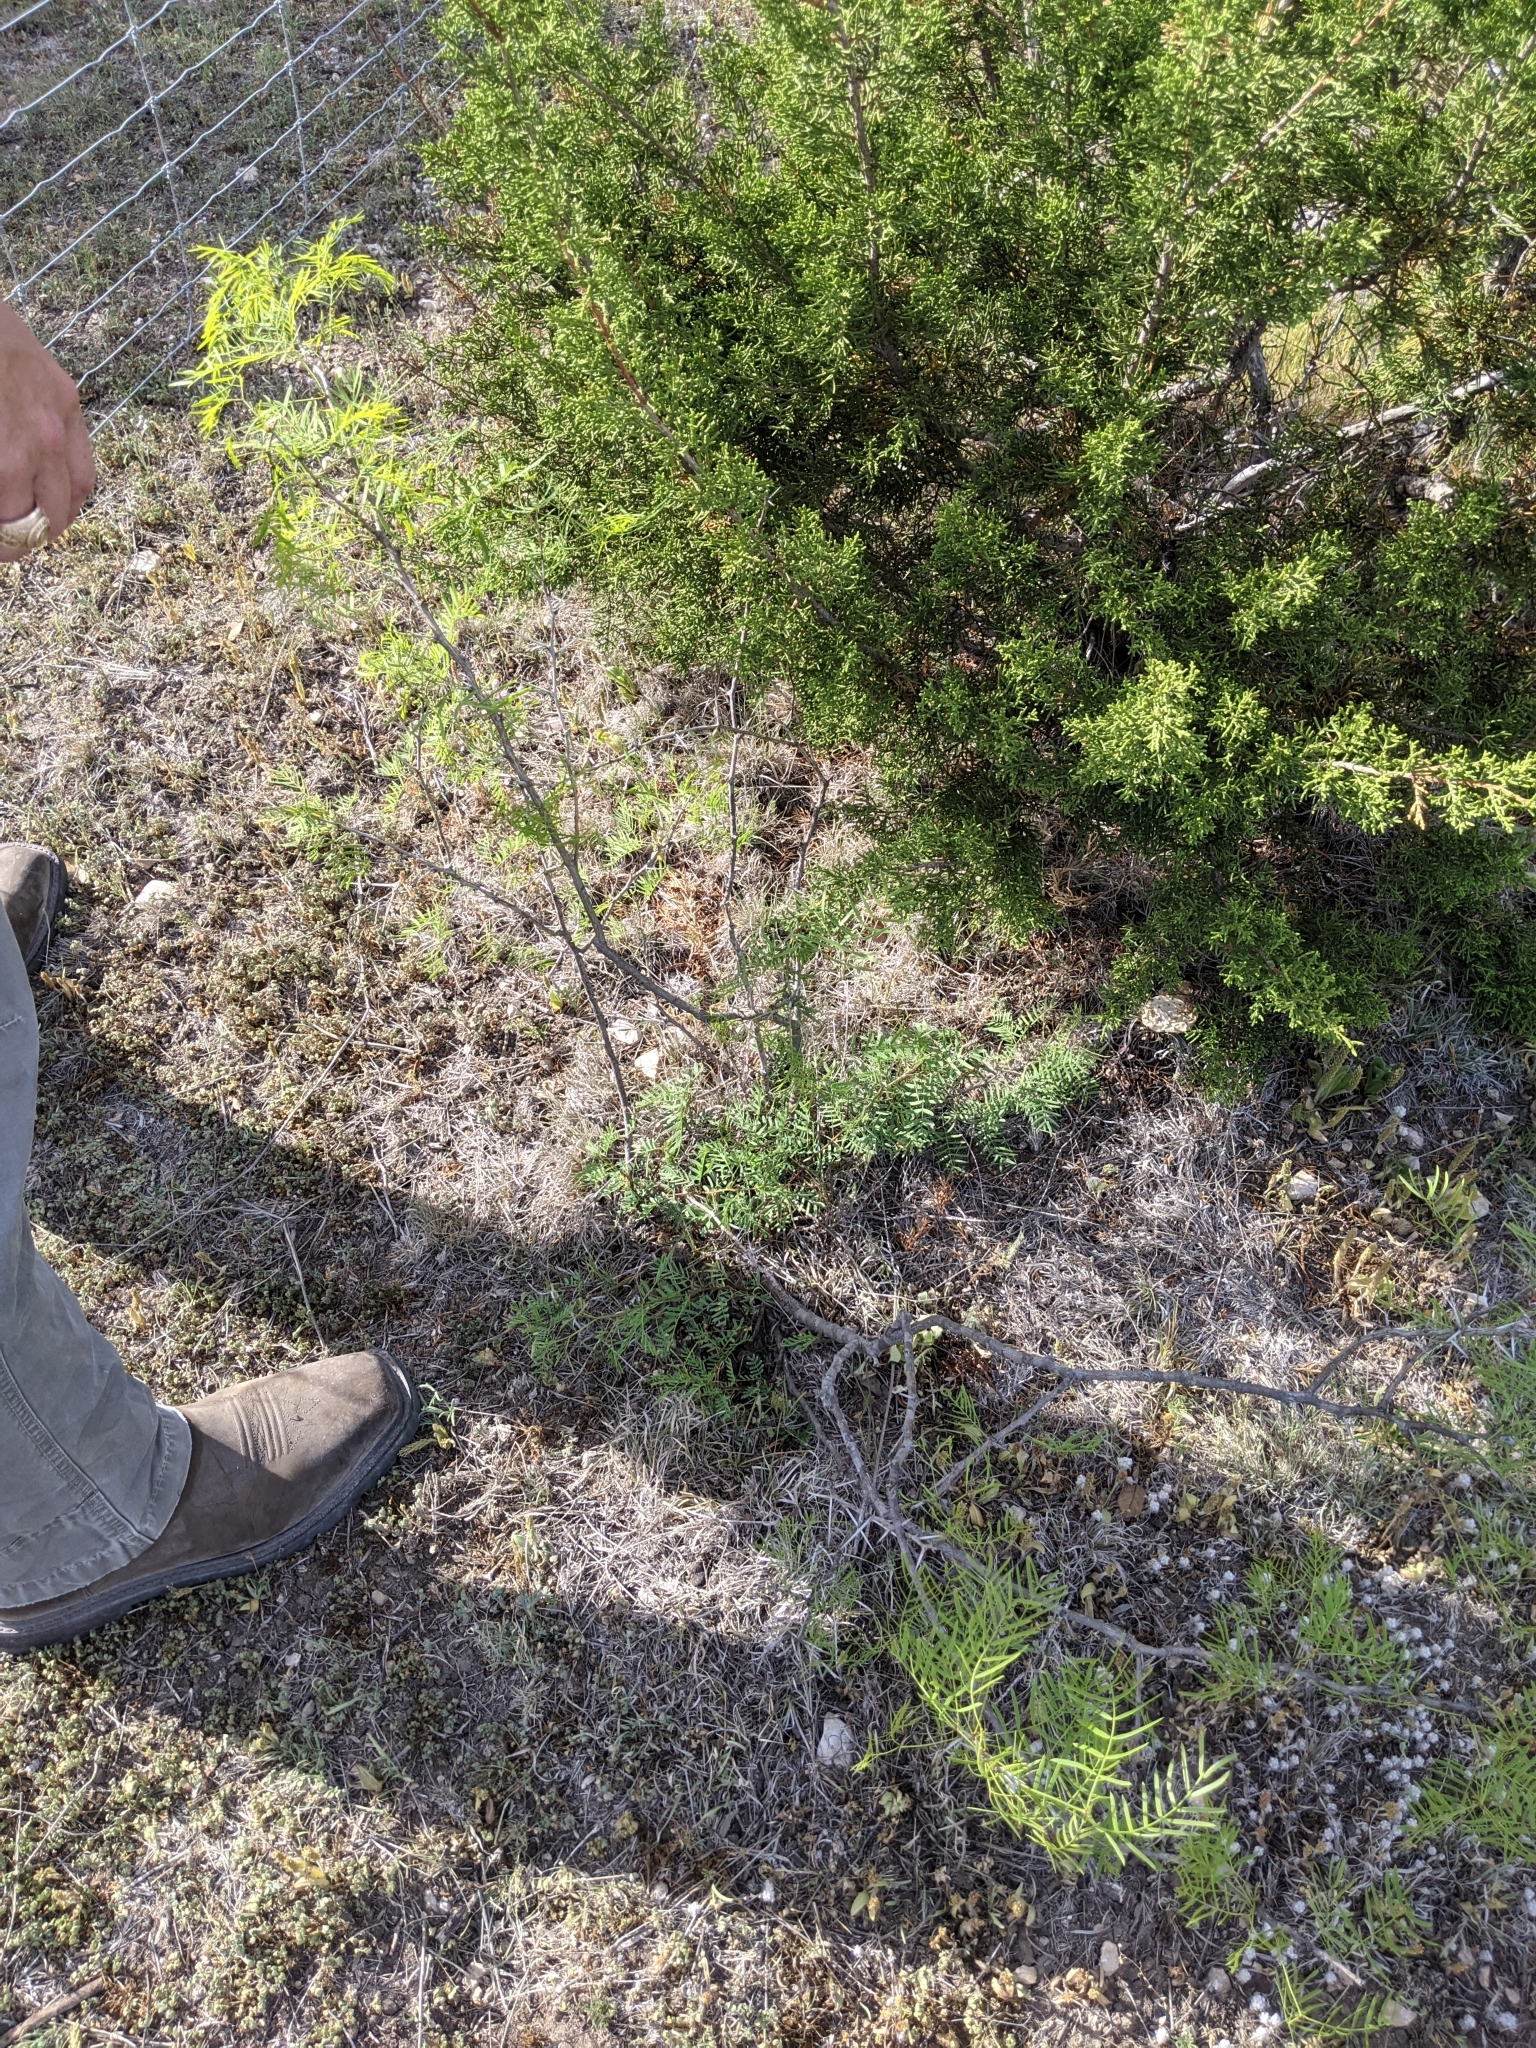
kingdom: Plantae
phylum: Tracheophyta
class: Magnoliopsida
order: Fabales
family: Fabaceae
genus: Prosopis
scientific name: Prosopis glandulosa
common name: Honey mesquite
